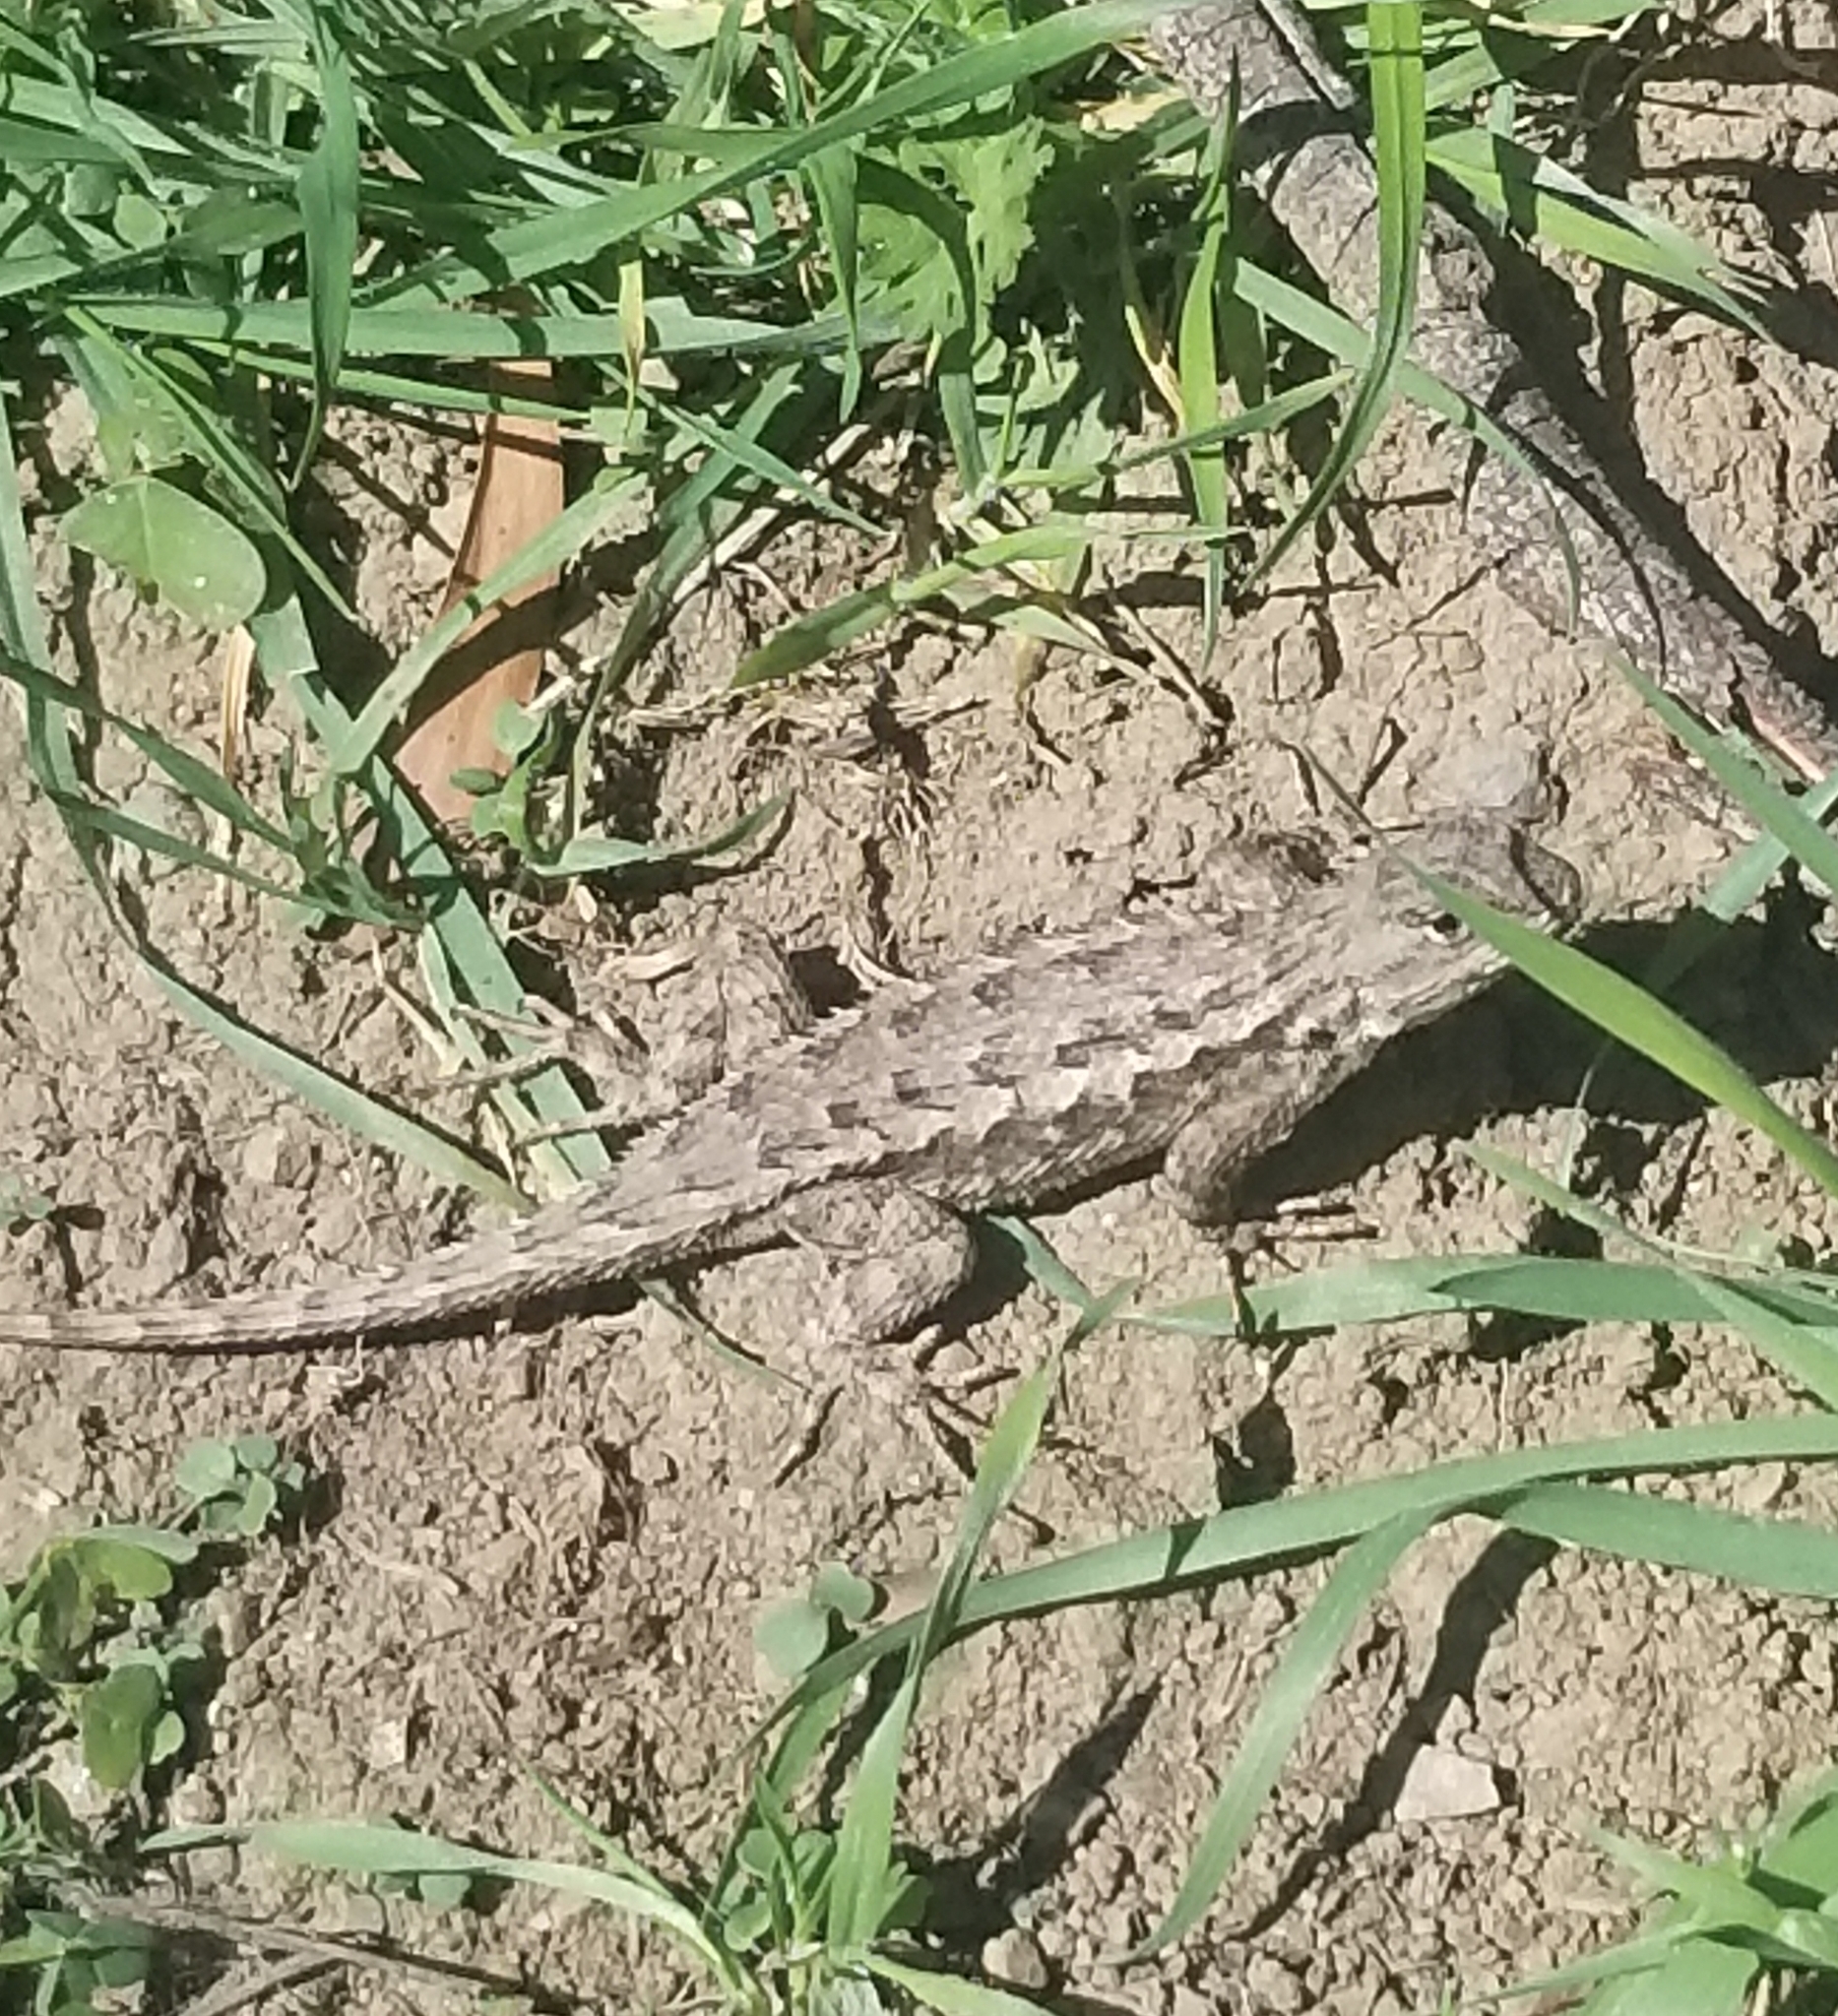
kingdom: Animalia
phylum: Chordata
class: Squamata
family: Phrynosomatidae
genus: Sceloporus
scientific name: Sceloporus occidentalis
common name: Western fence lizard
